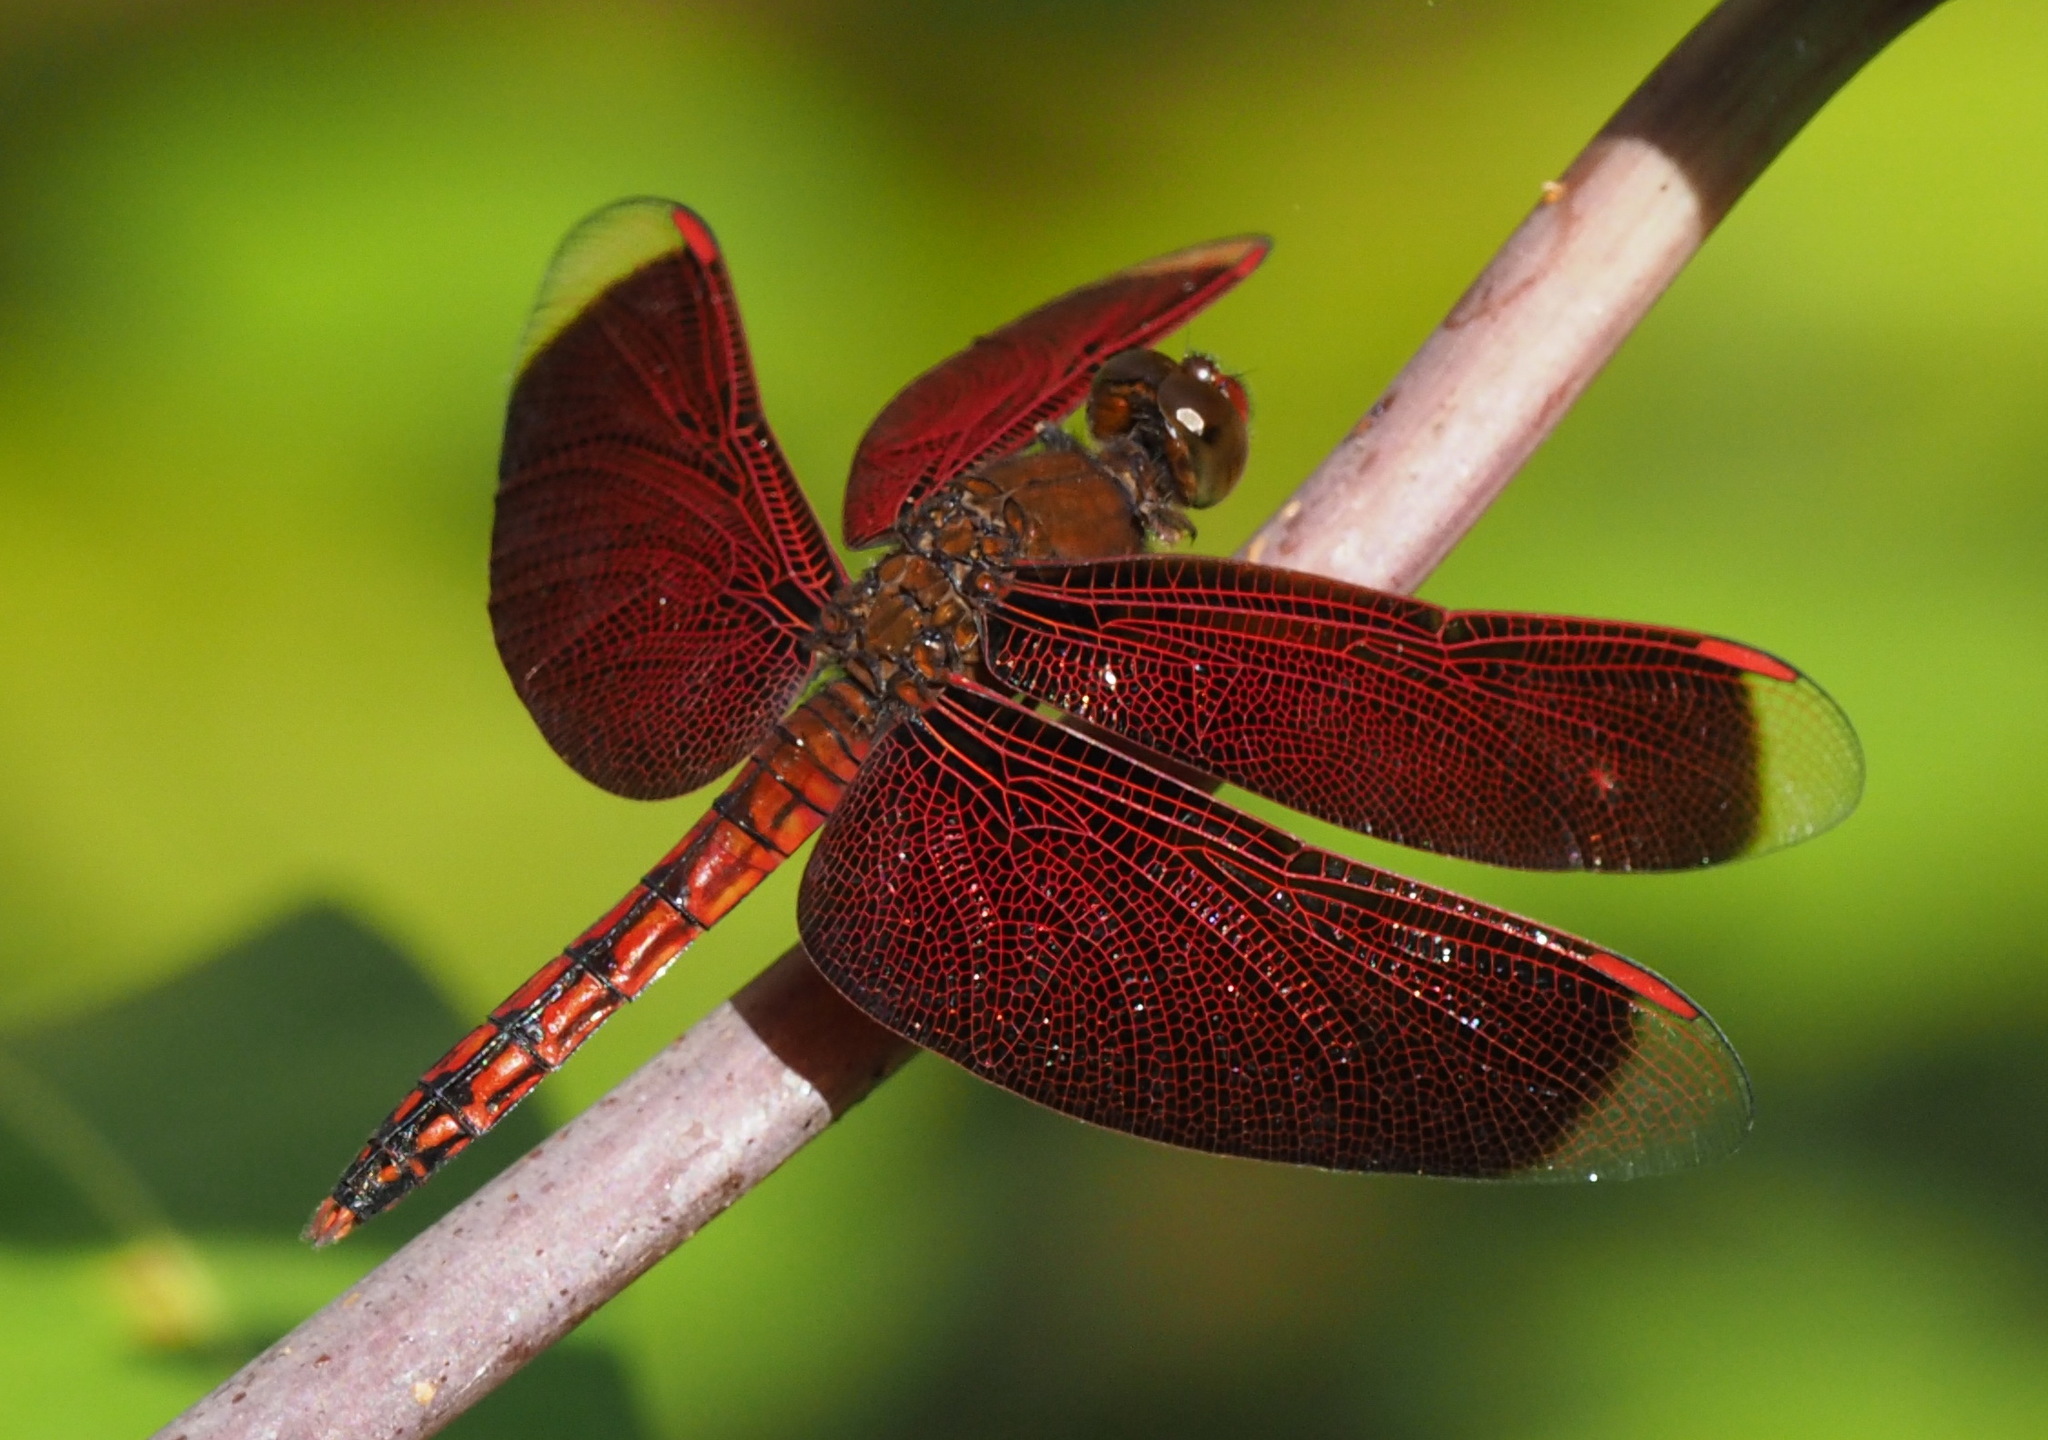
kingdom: Animalia
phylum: Arthropoda
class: Insecta
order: Odonata
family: Libellulidae
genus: Neurothemis
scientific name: Neurothemis taiwanensis
